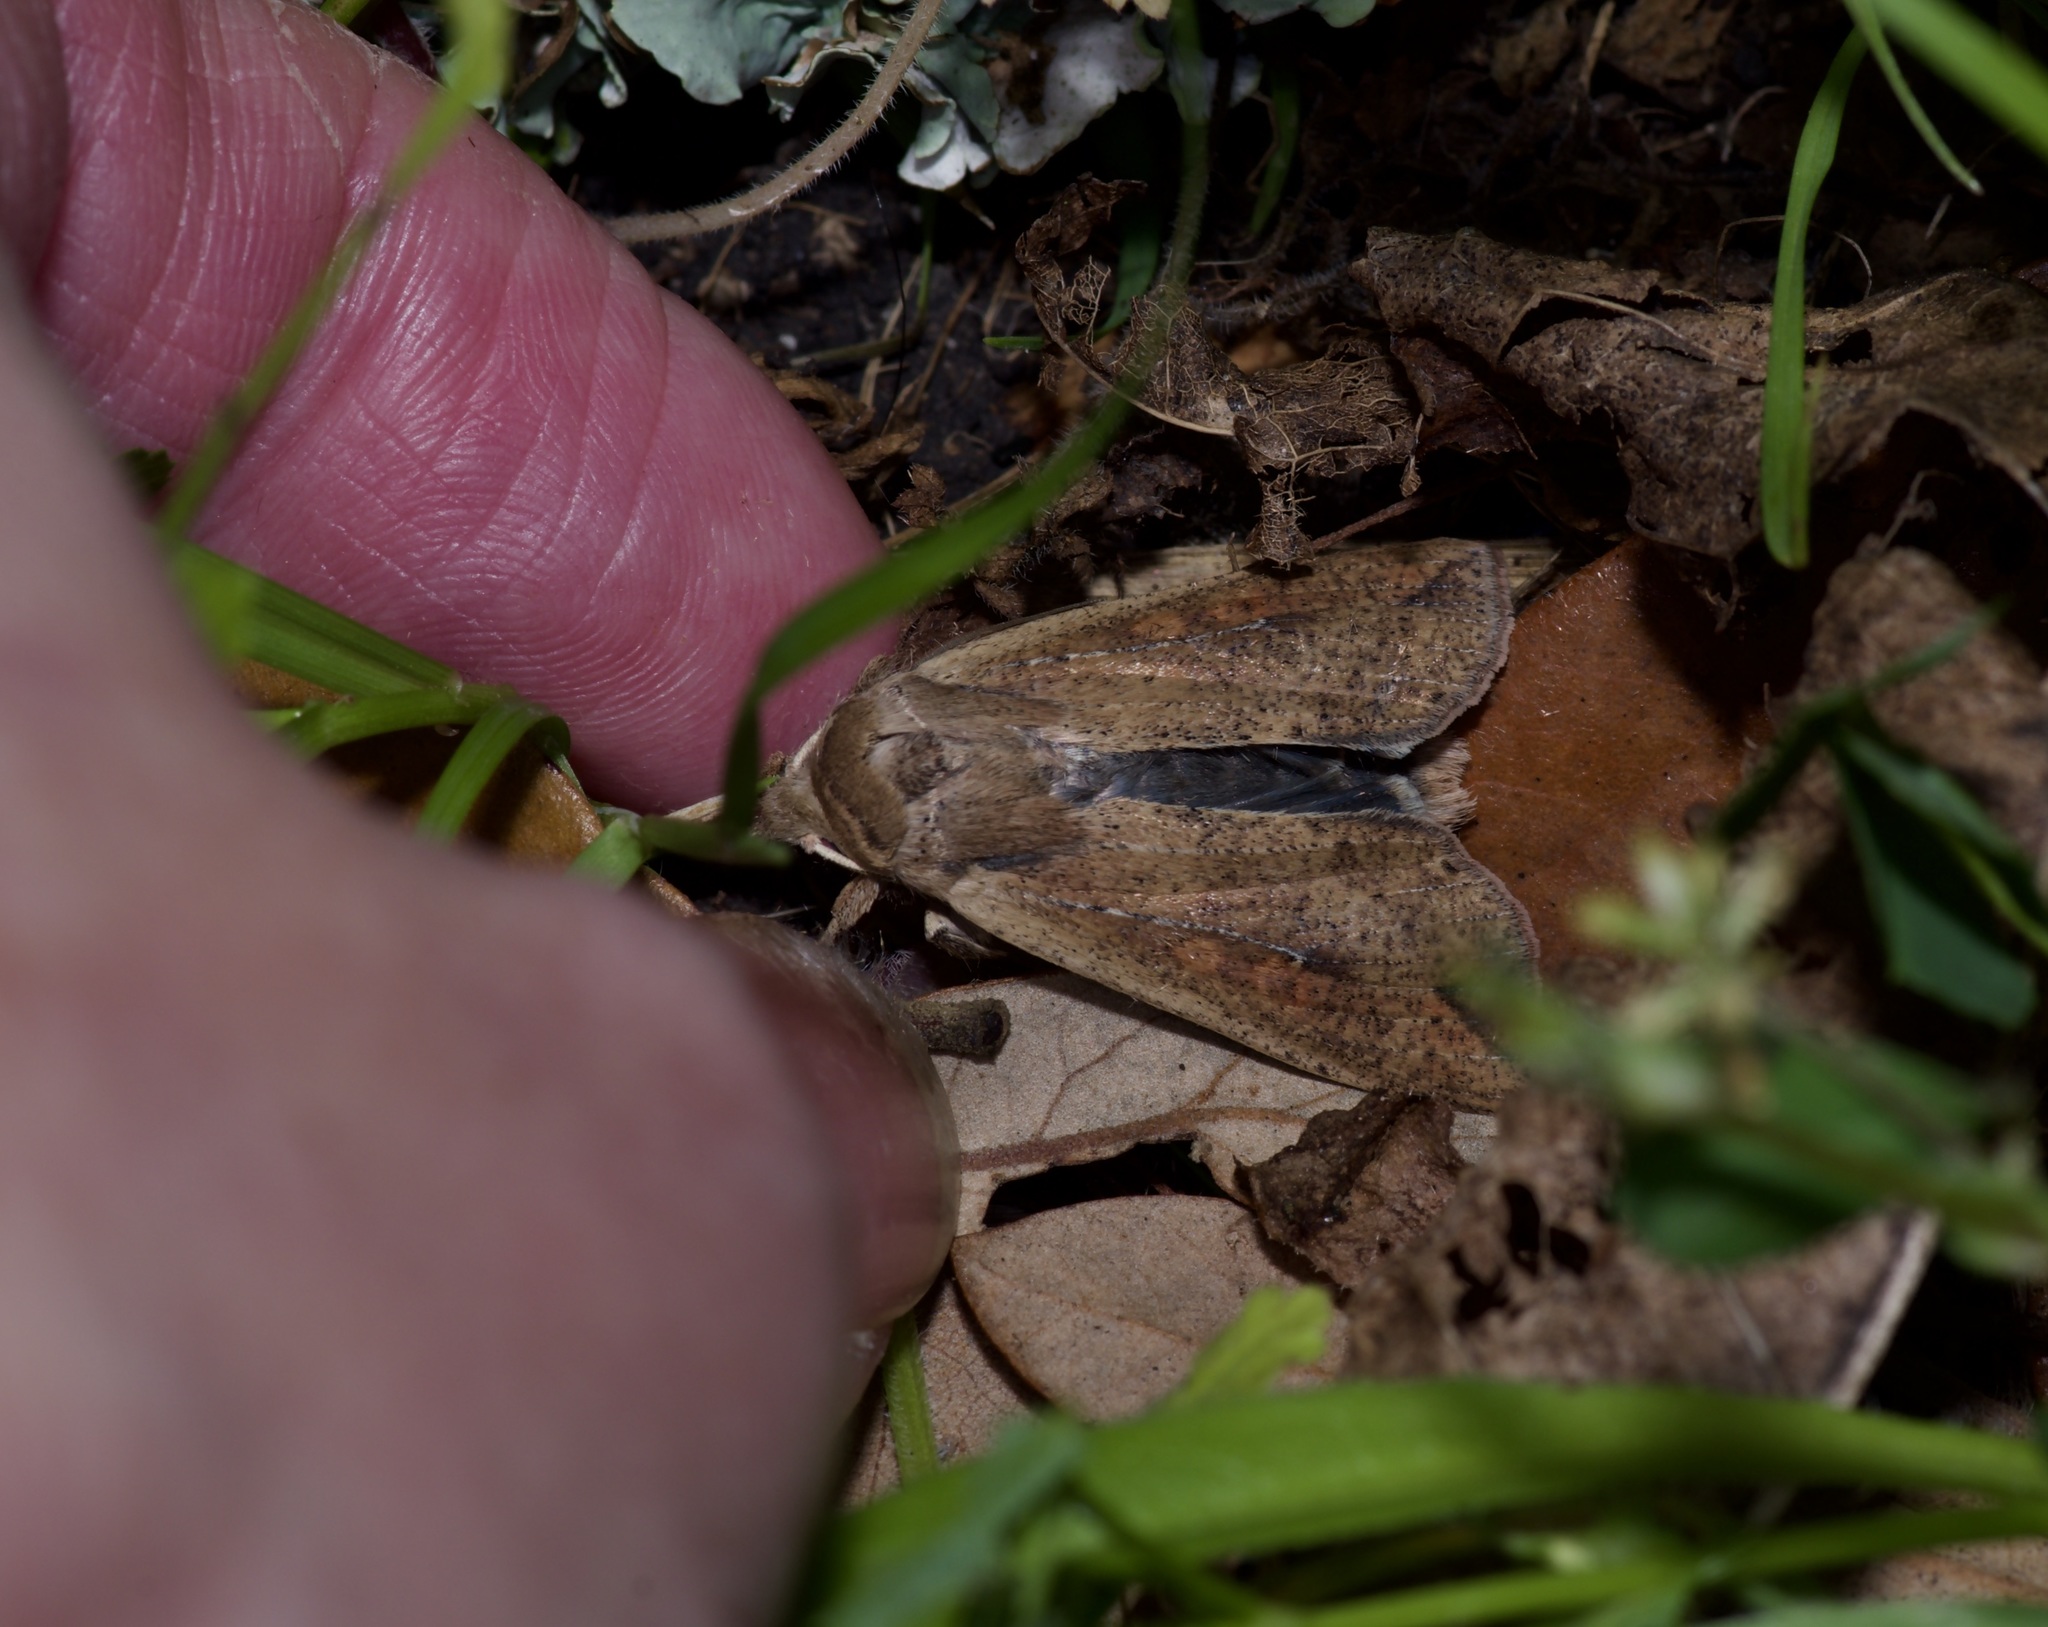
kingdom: Animalia
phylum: Arthropoda
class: Insecta
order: Lepidoptera
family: Noctuidae
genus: Mythimna
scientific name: Mythimna unipuncta
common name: White-speck
